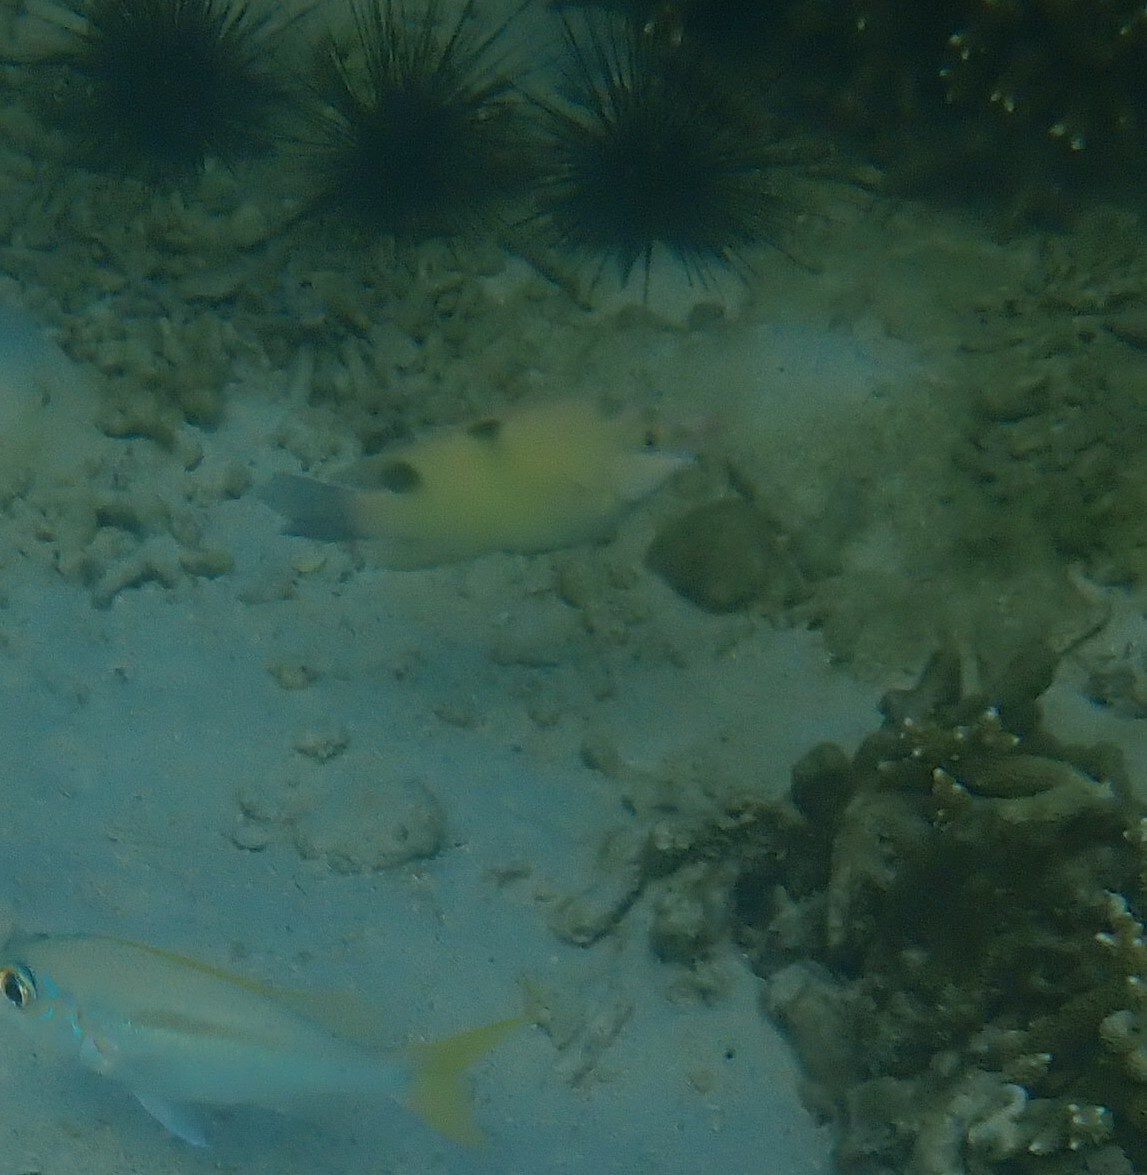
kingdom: Animalia
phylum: Chordata
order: Perciformes
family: Pomacentridae
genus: Dischistodus
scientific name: Dischistodus perspicillatus
